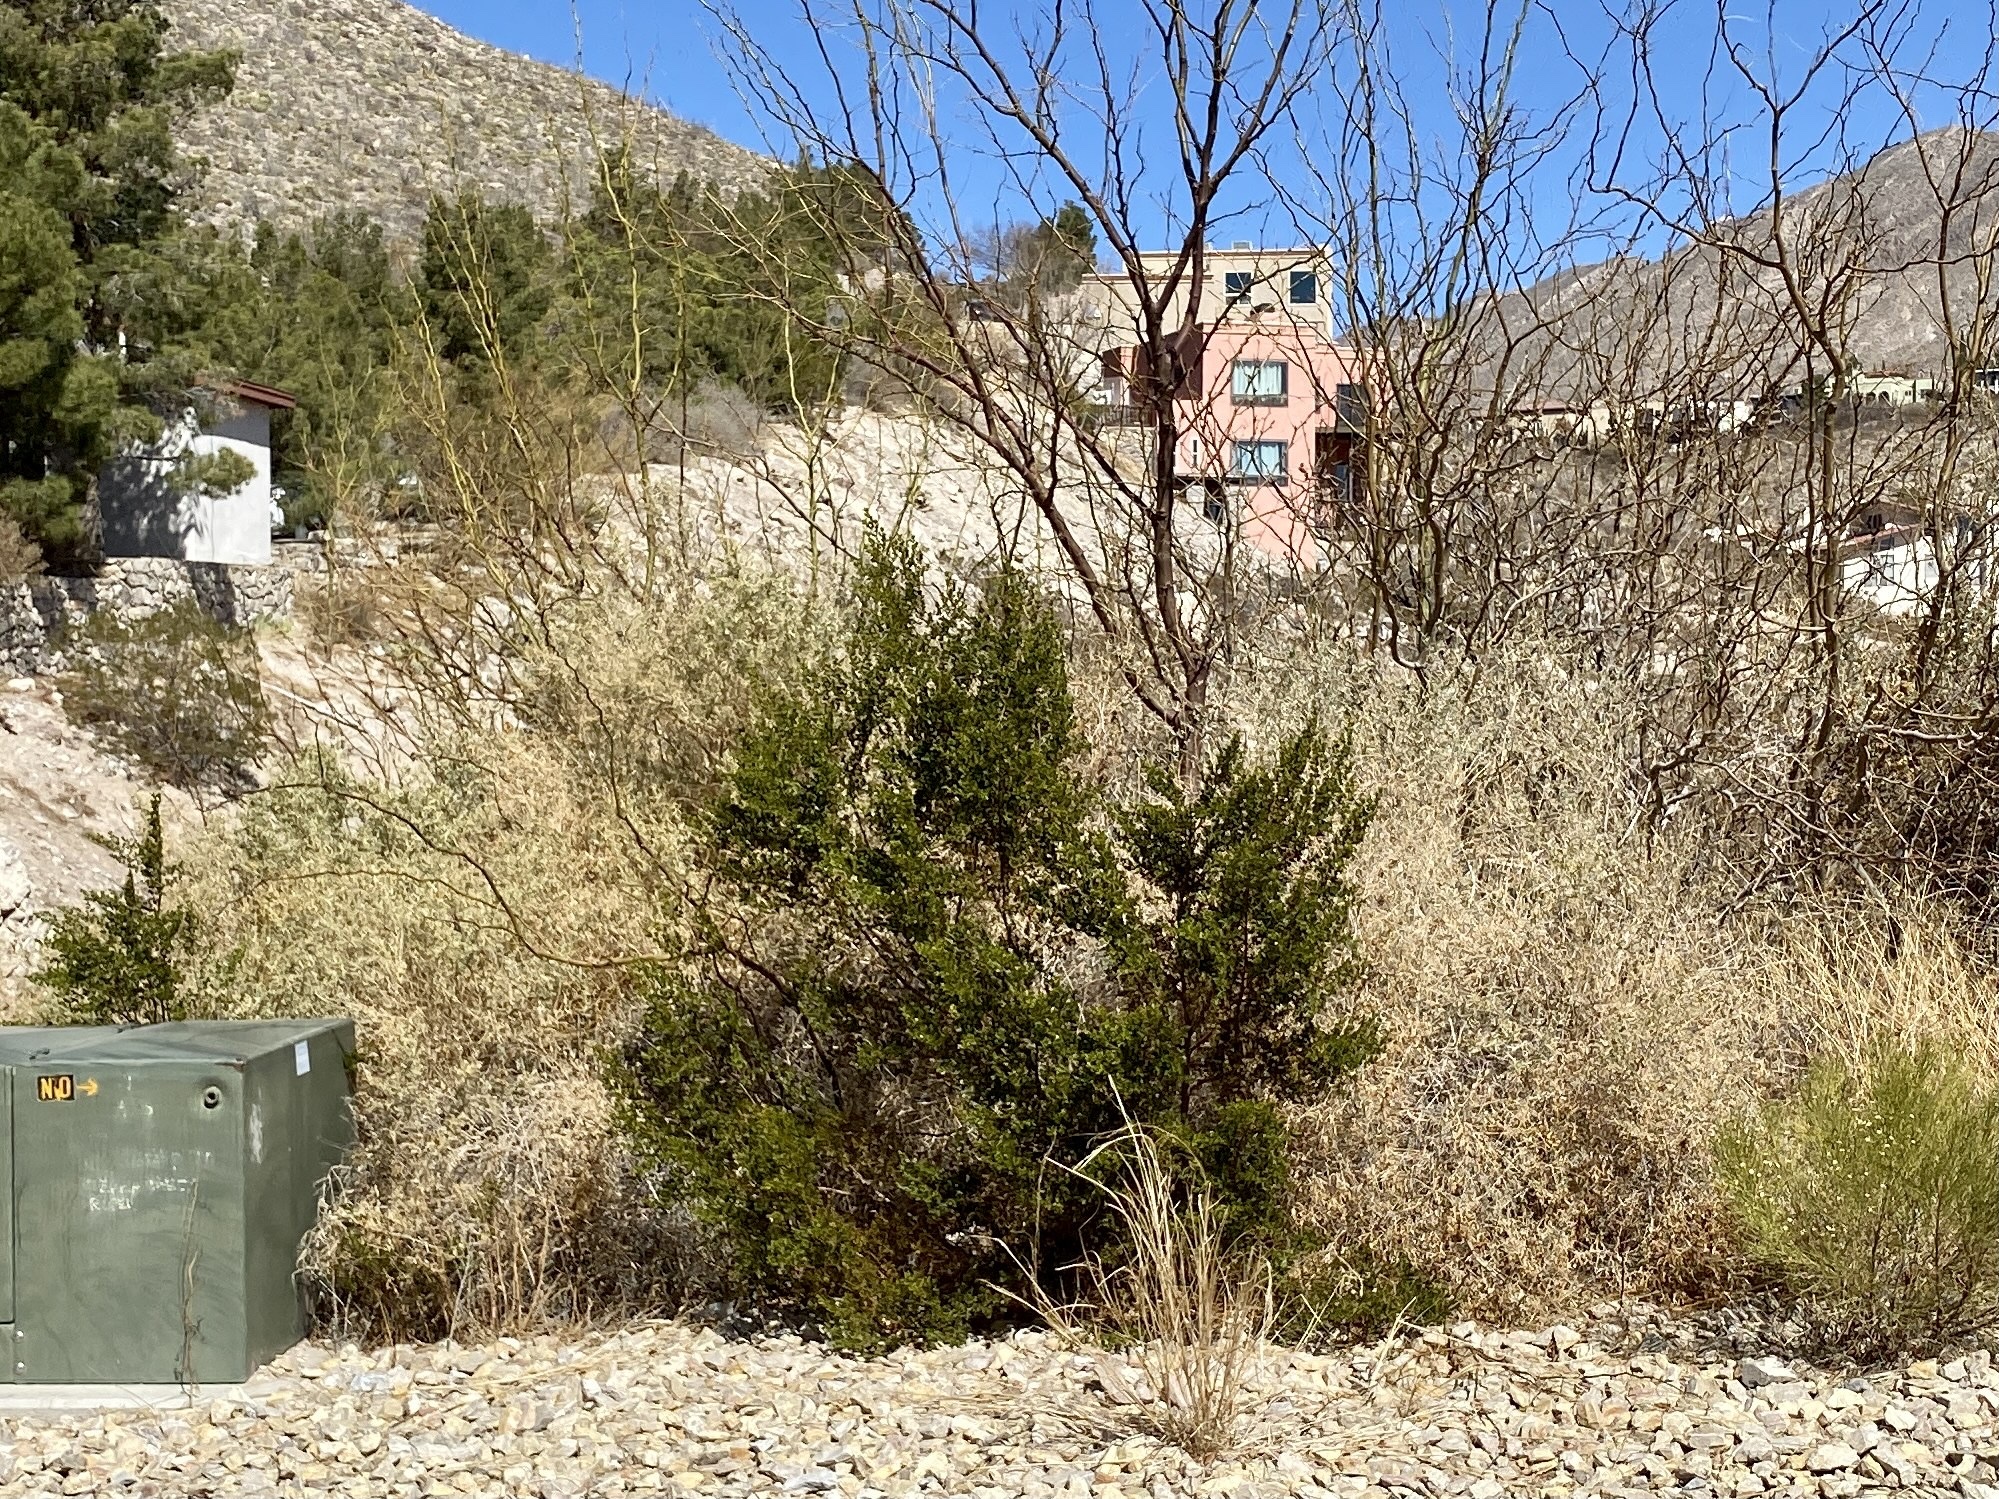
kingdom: Plantae
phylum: Tracheophyta
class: Magnoliopsida
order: Zygophyllales
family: Zygophyllaceae
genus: Larrea
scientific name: Larrea tridentata
